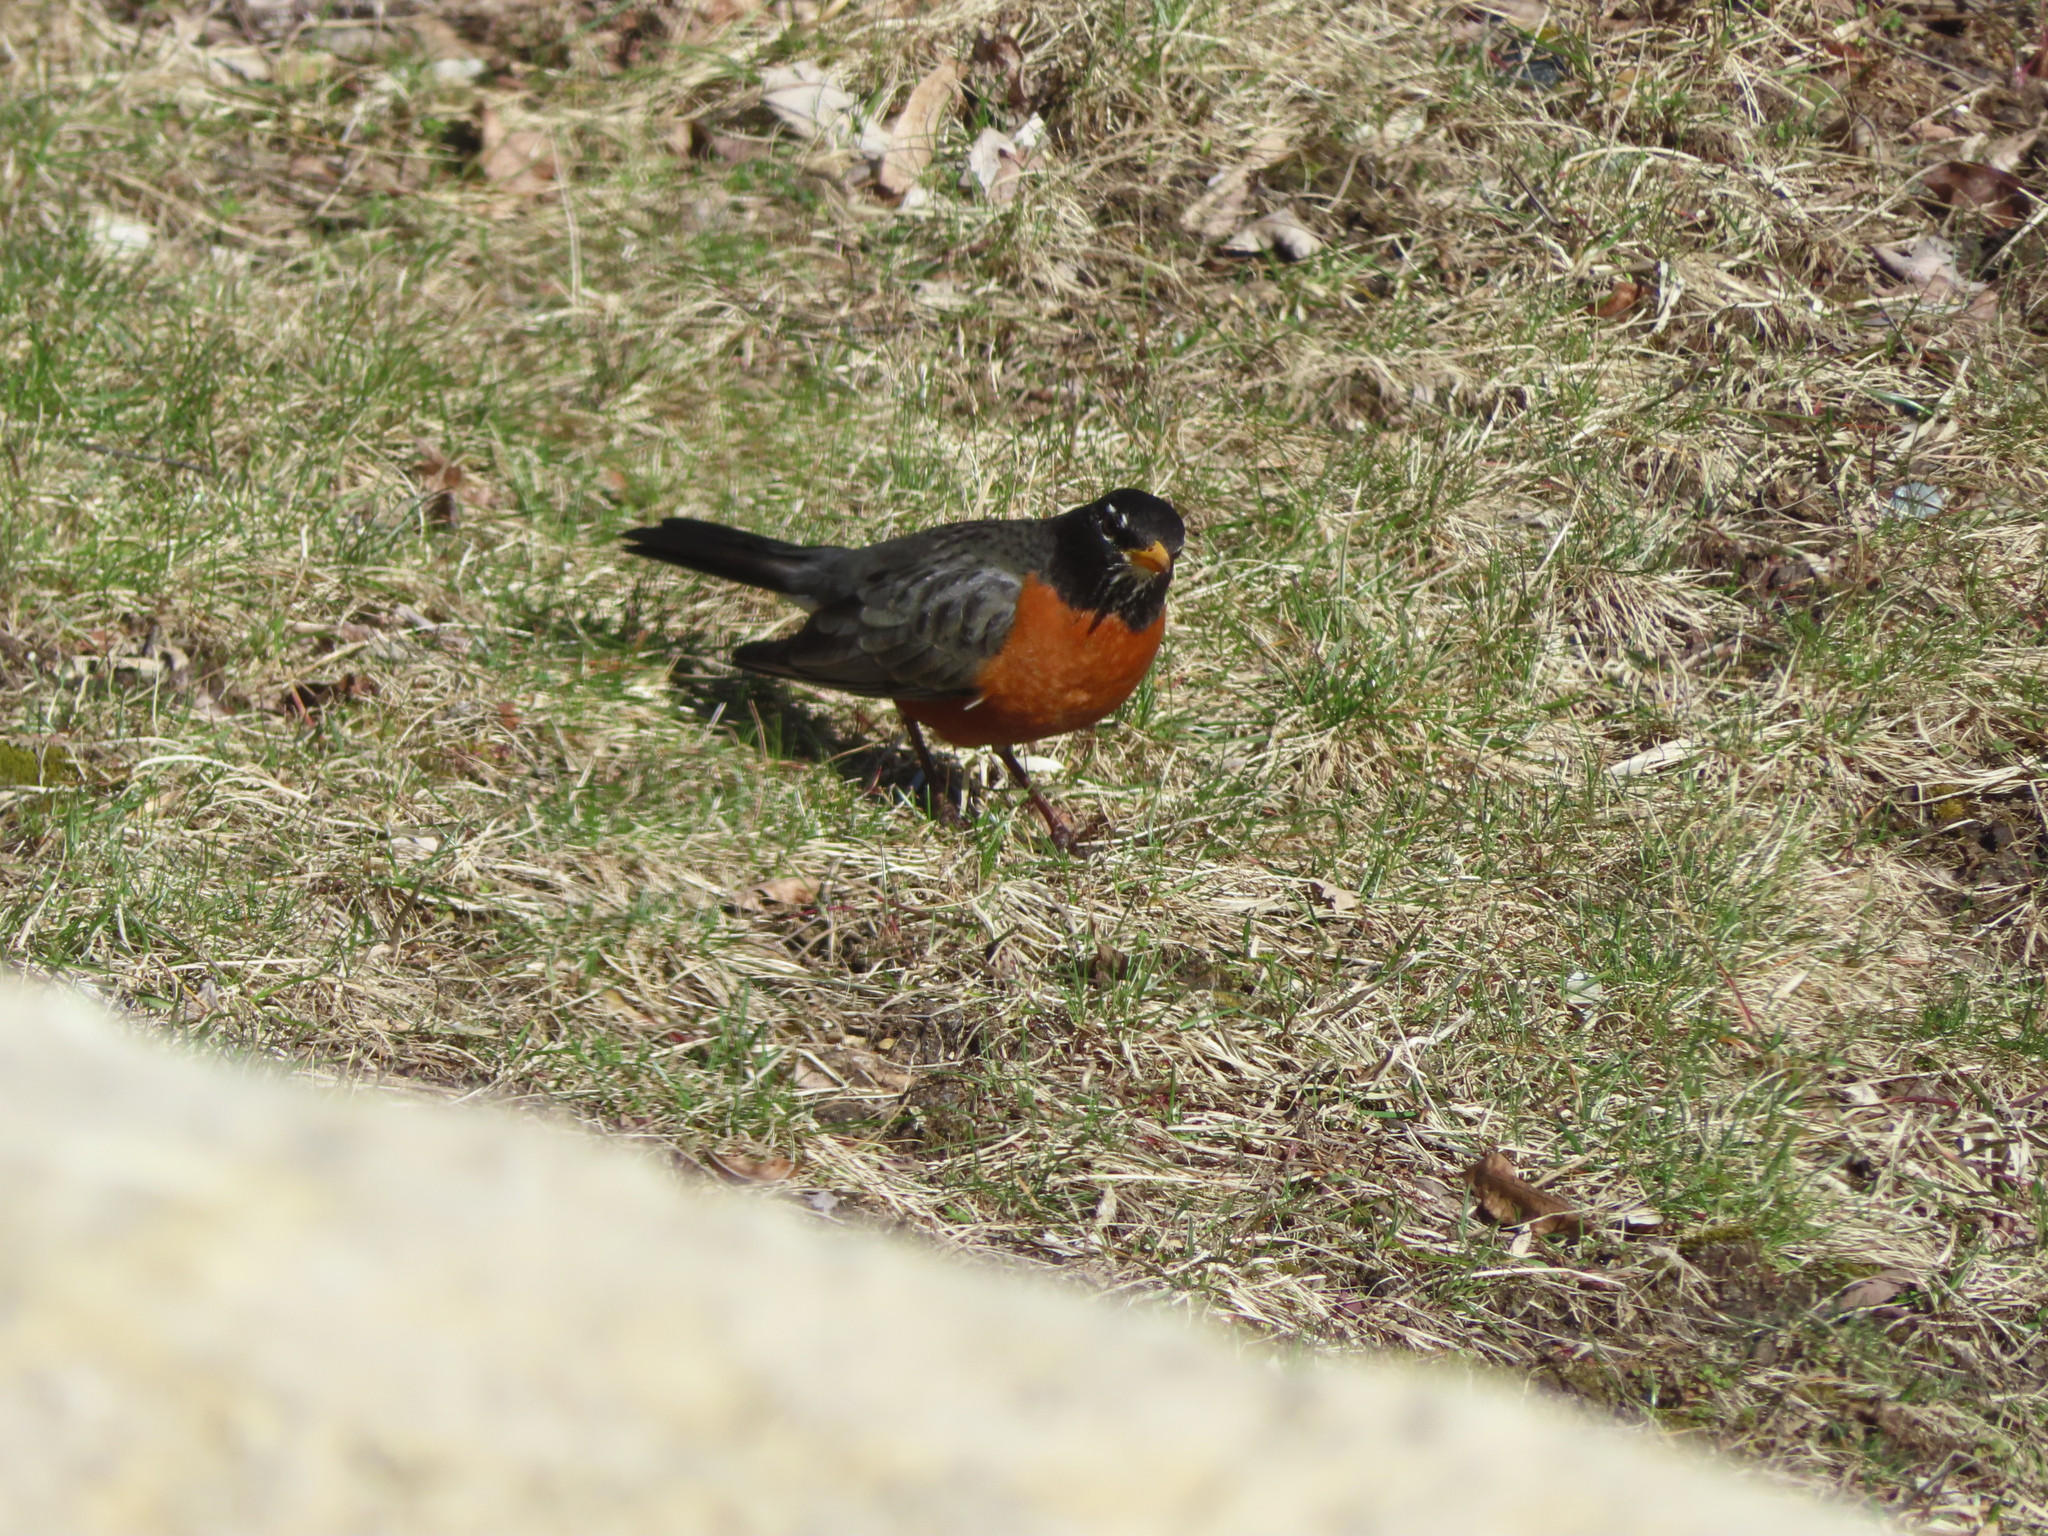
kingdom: Animalia
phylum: Chordata
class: Aves
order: Passeriformes
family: Turdidae
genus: Turdus
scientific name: Turdus migratorius
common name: American robin
